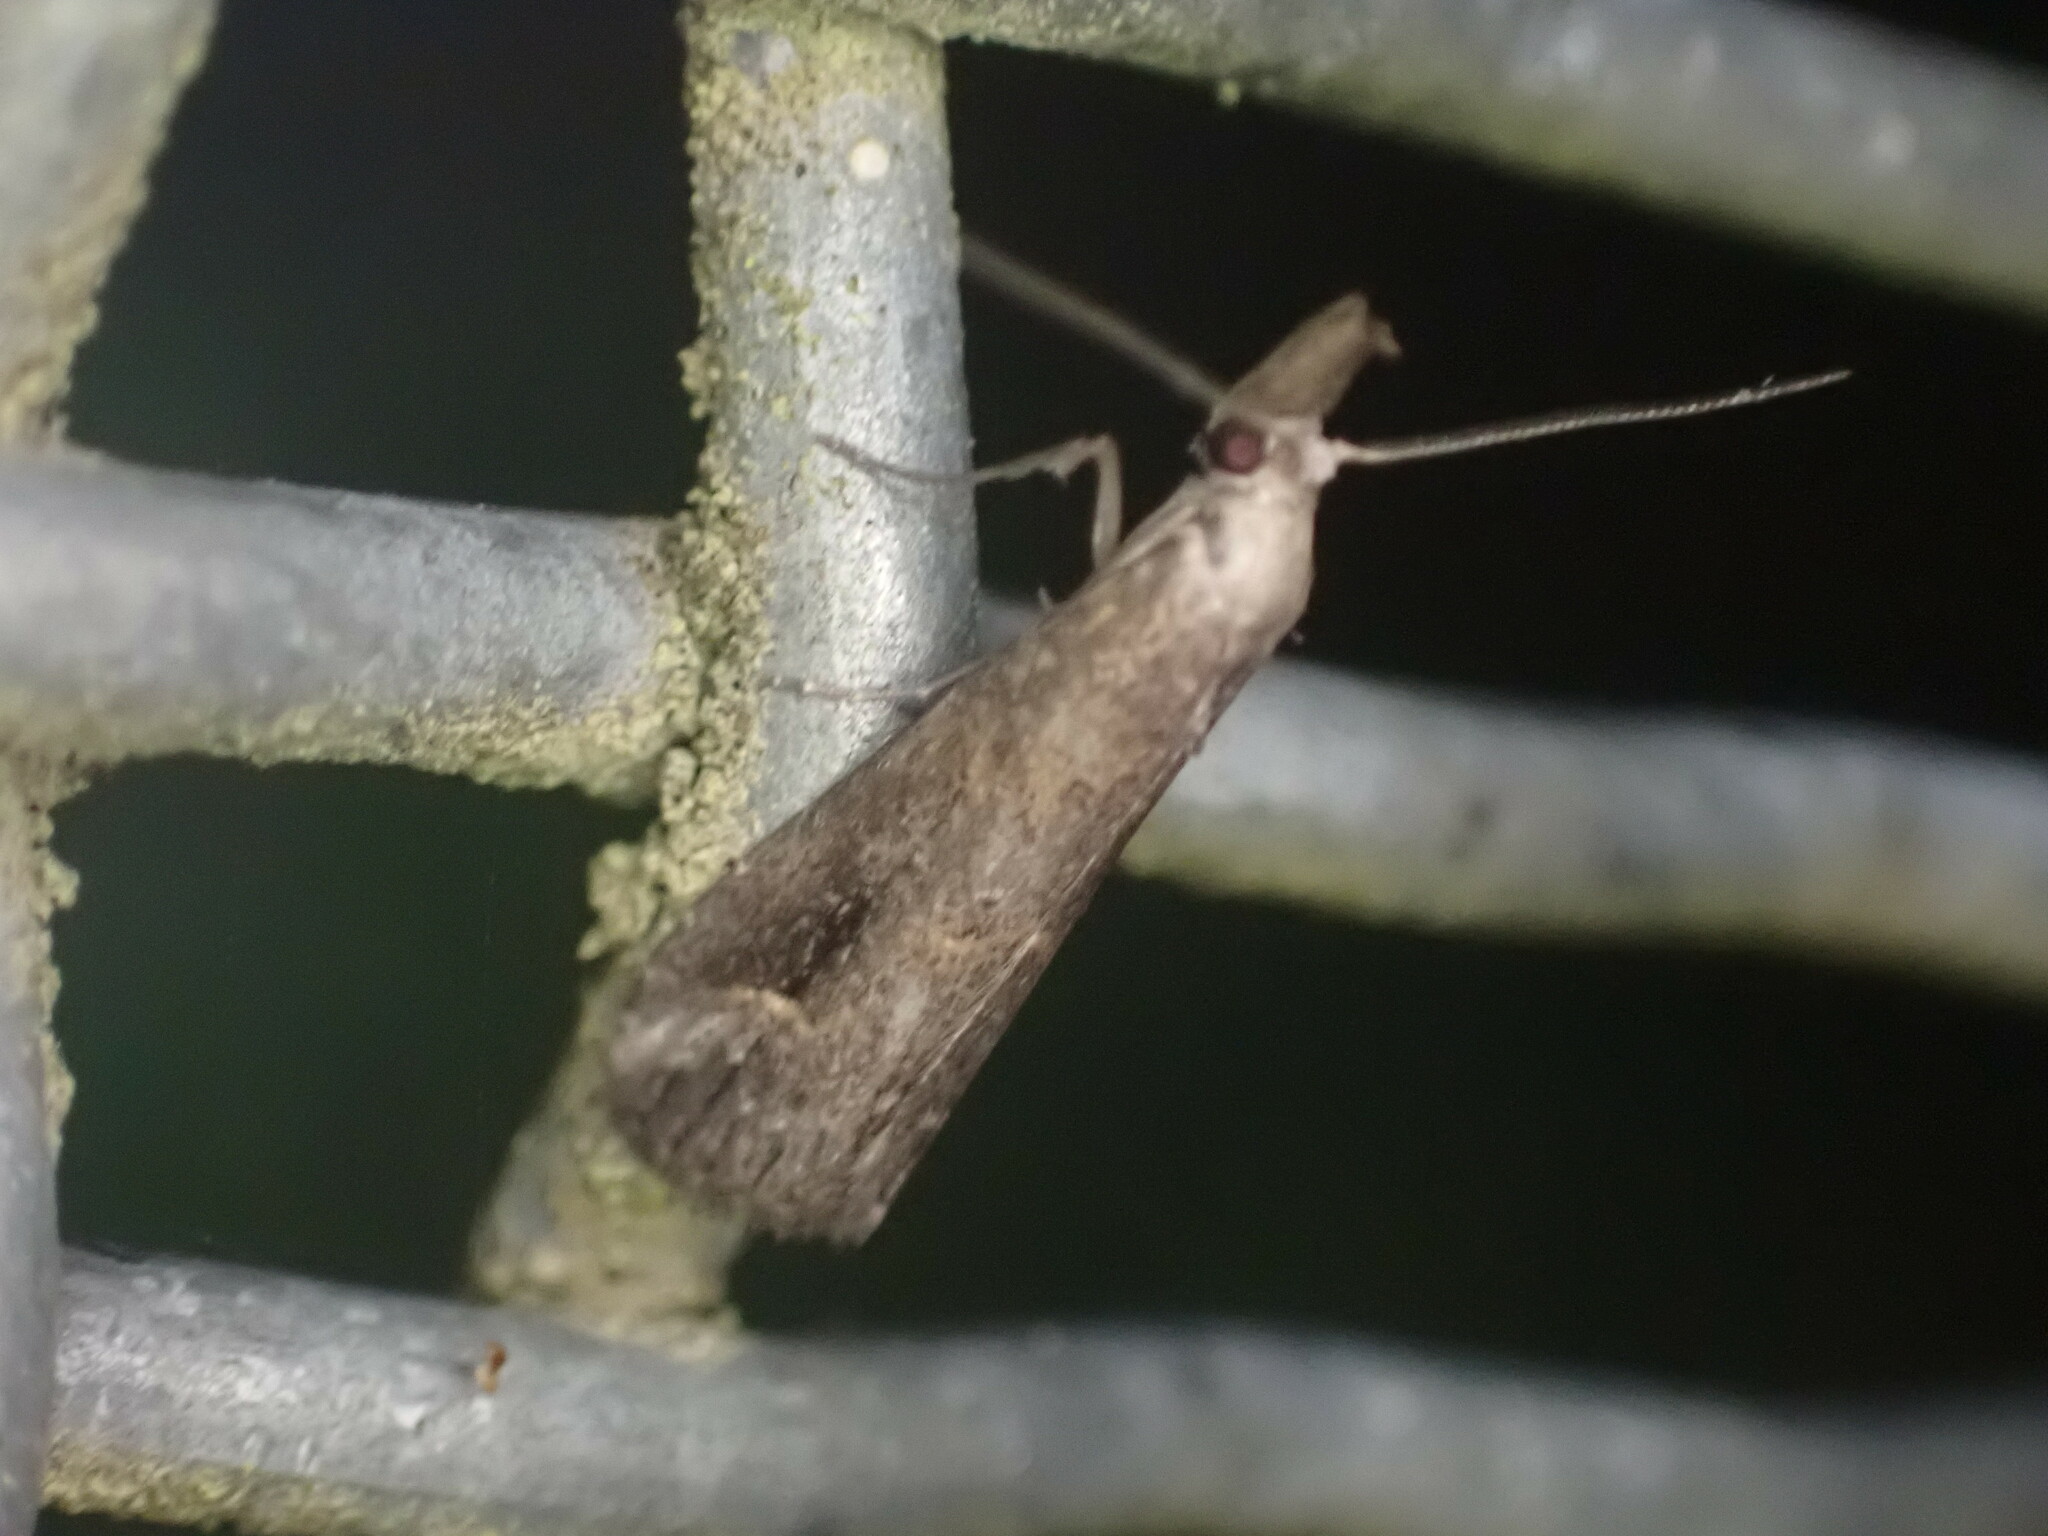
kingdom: Animalia
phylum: Arthropoda
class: Insecta
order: Lepidoptera
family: Erebidae
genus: Schrankia
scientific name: Schrankia costaestrigalis
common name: Pinion-streaked snout
